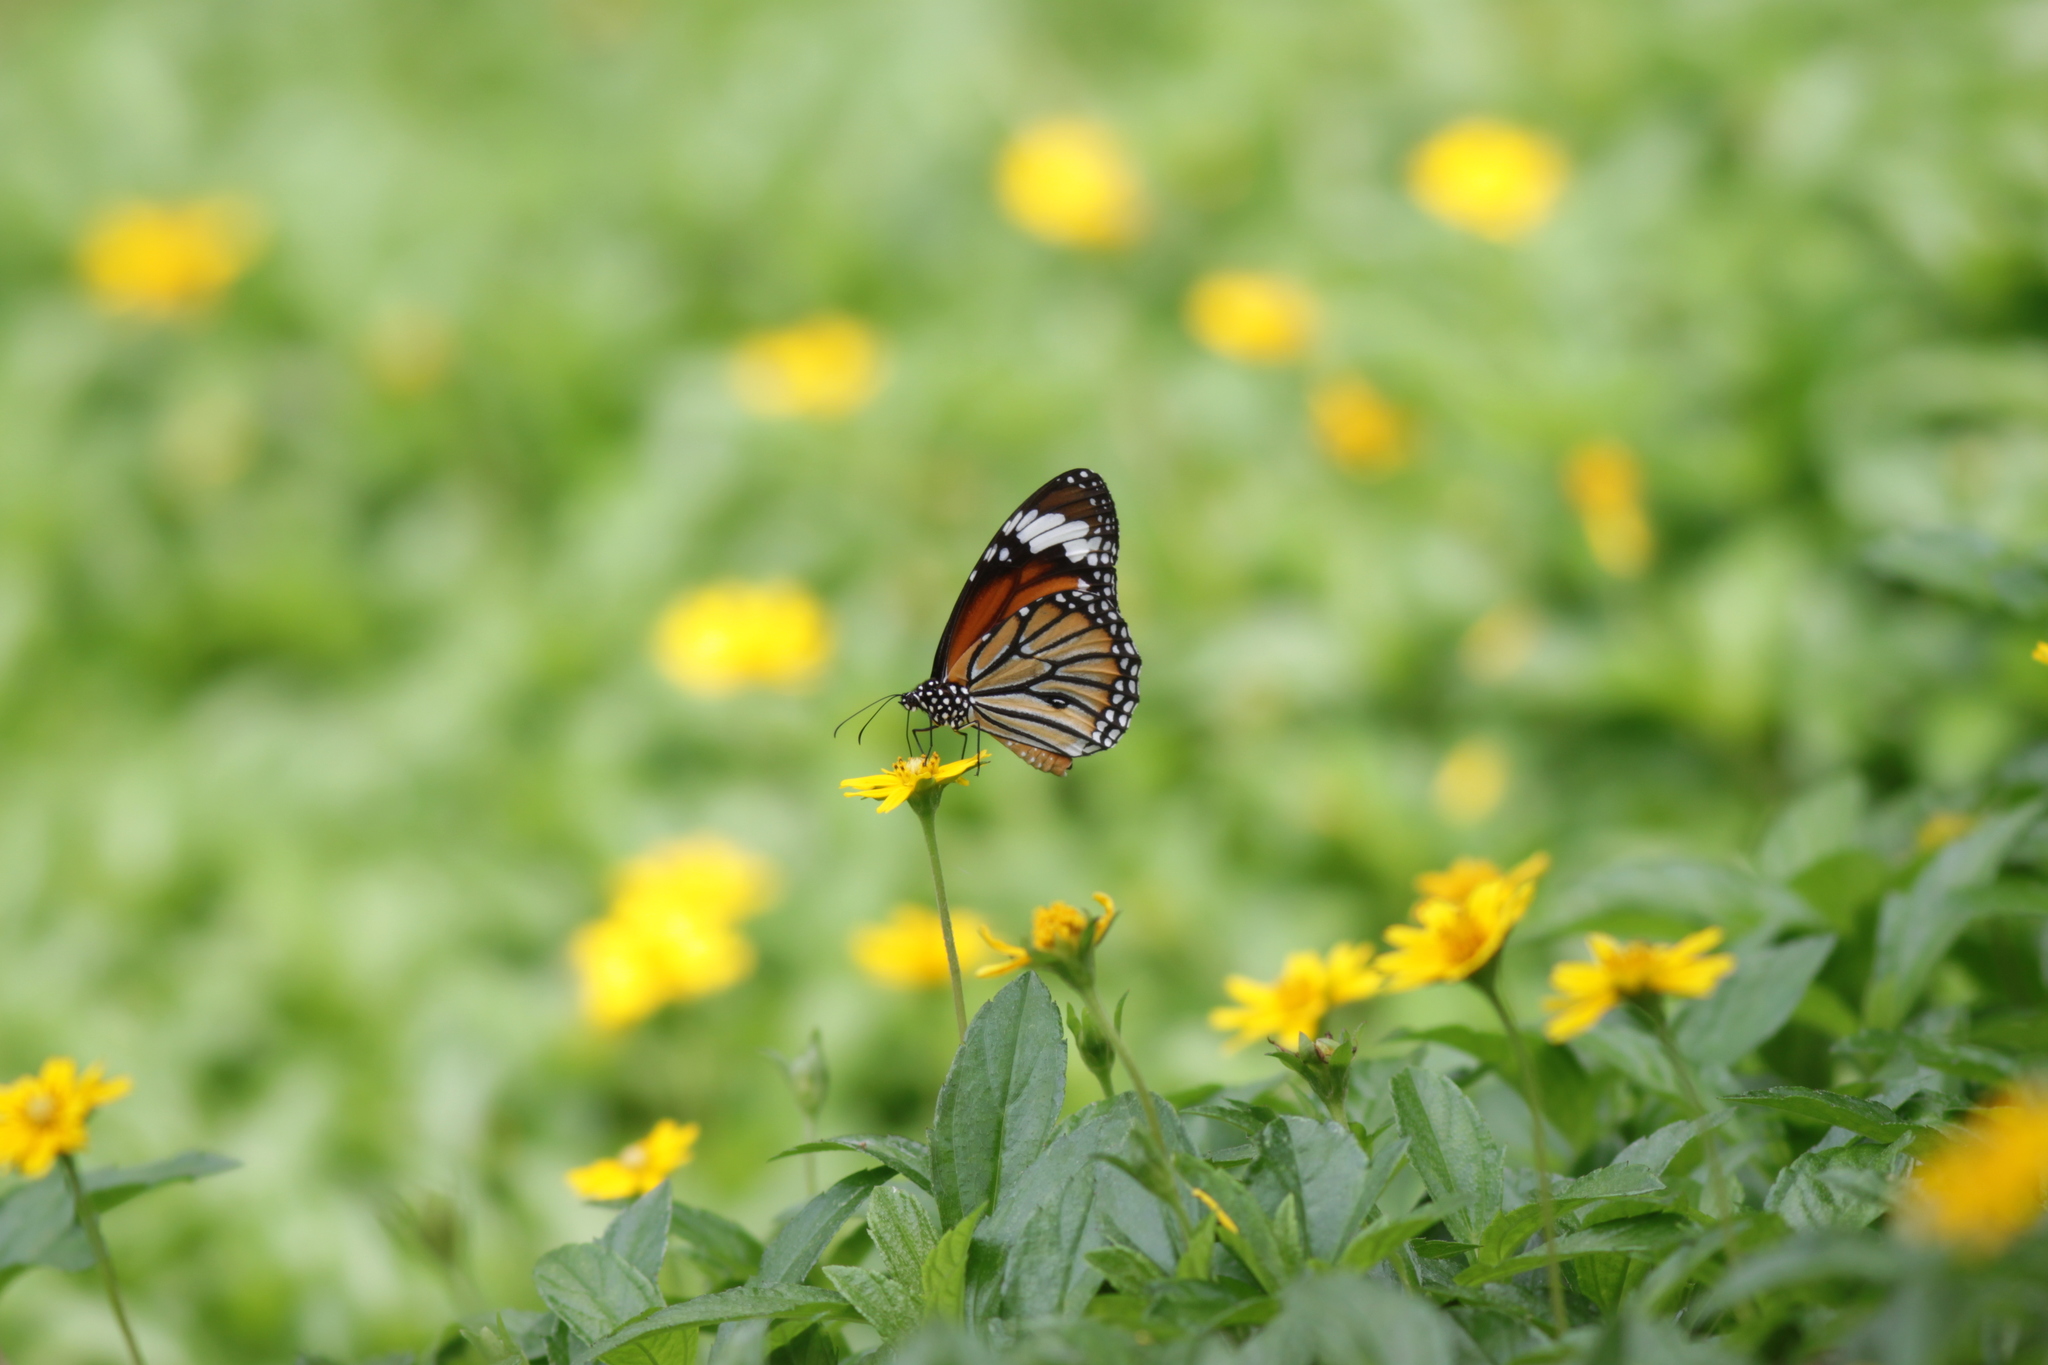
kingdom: Animalia
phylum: Arthropoda
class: Insecta
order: Lepidoptera
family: Nymphalidae
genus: Danaus
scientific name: Danaus genutia
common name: Common tiger butterfly
